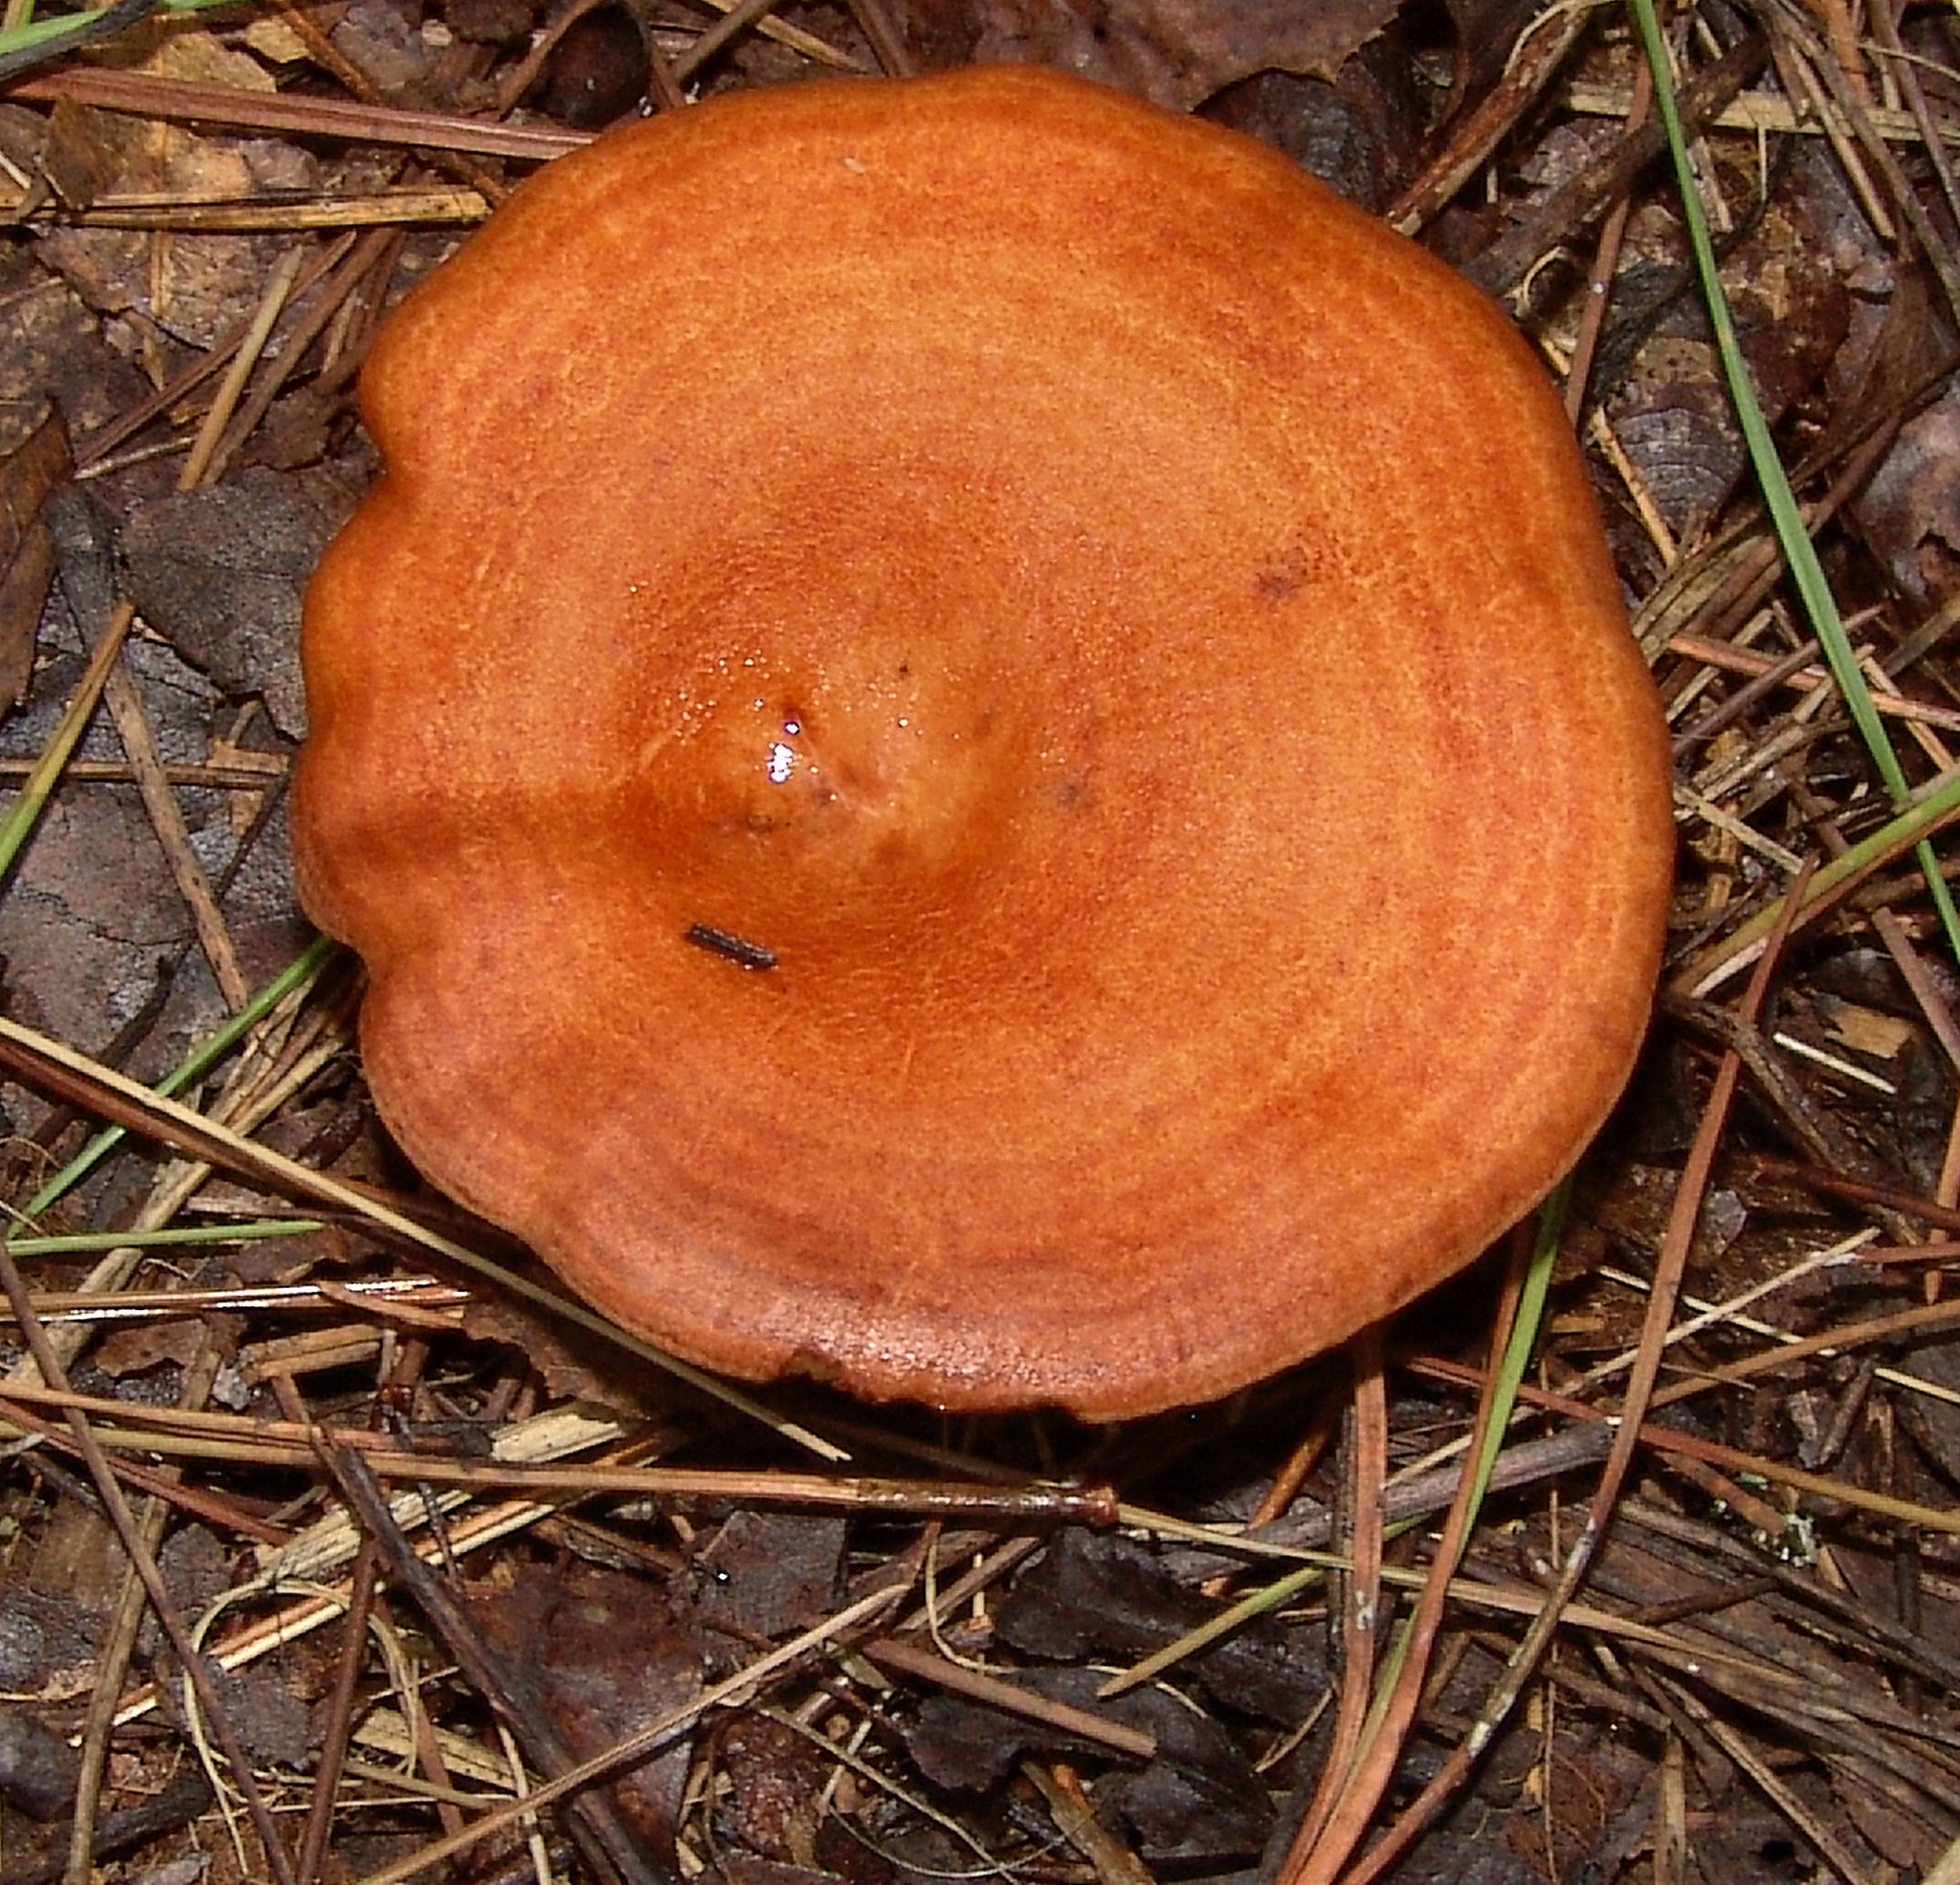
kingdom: Fungi
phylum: Basidiomycota
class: Agaricomycetes
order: Russulales
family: Russulaceae
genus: Lactarius
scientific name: Lactarius peckii
